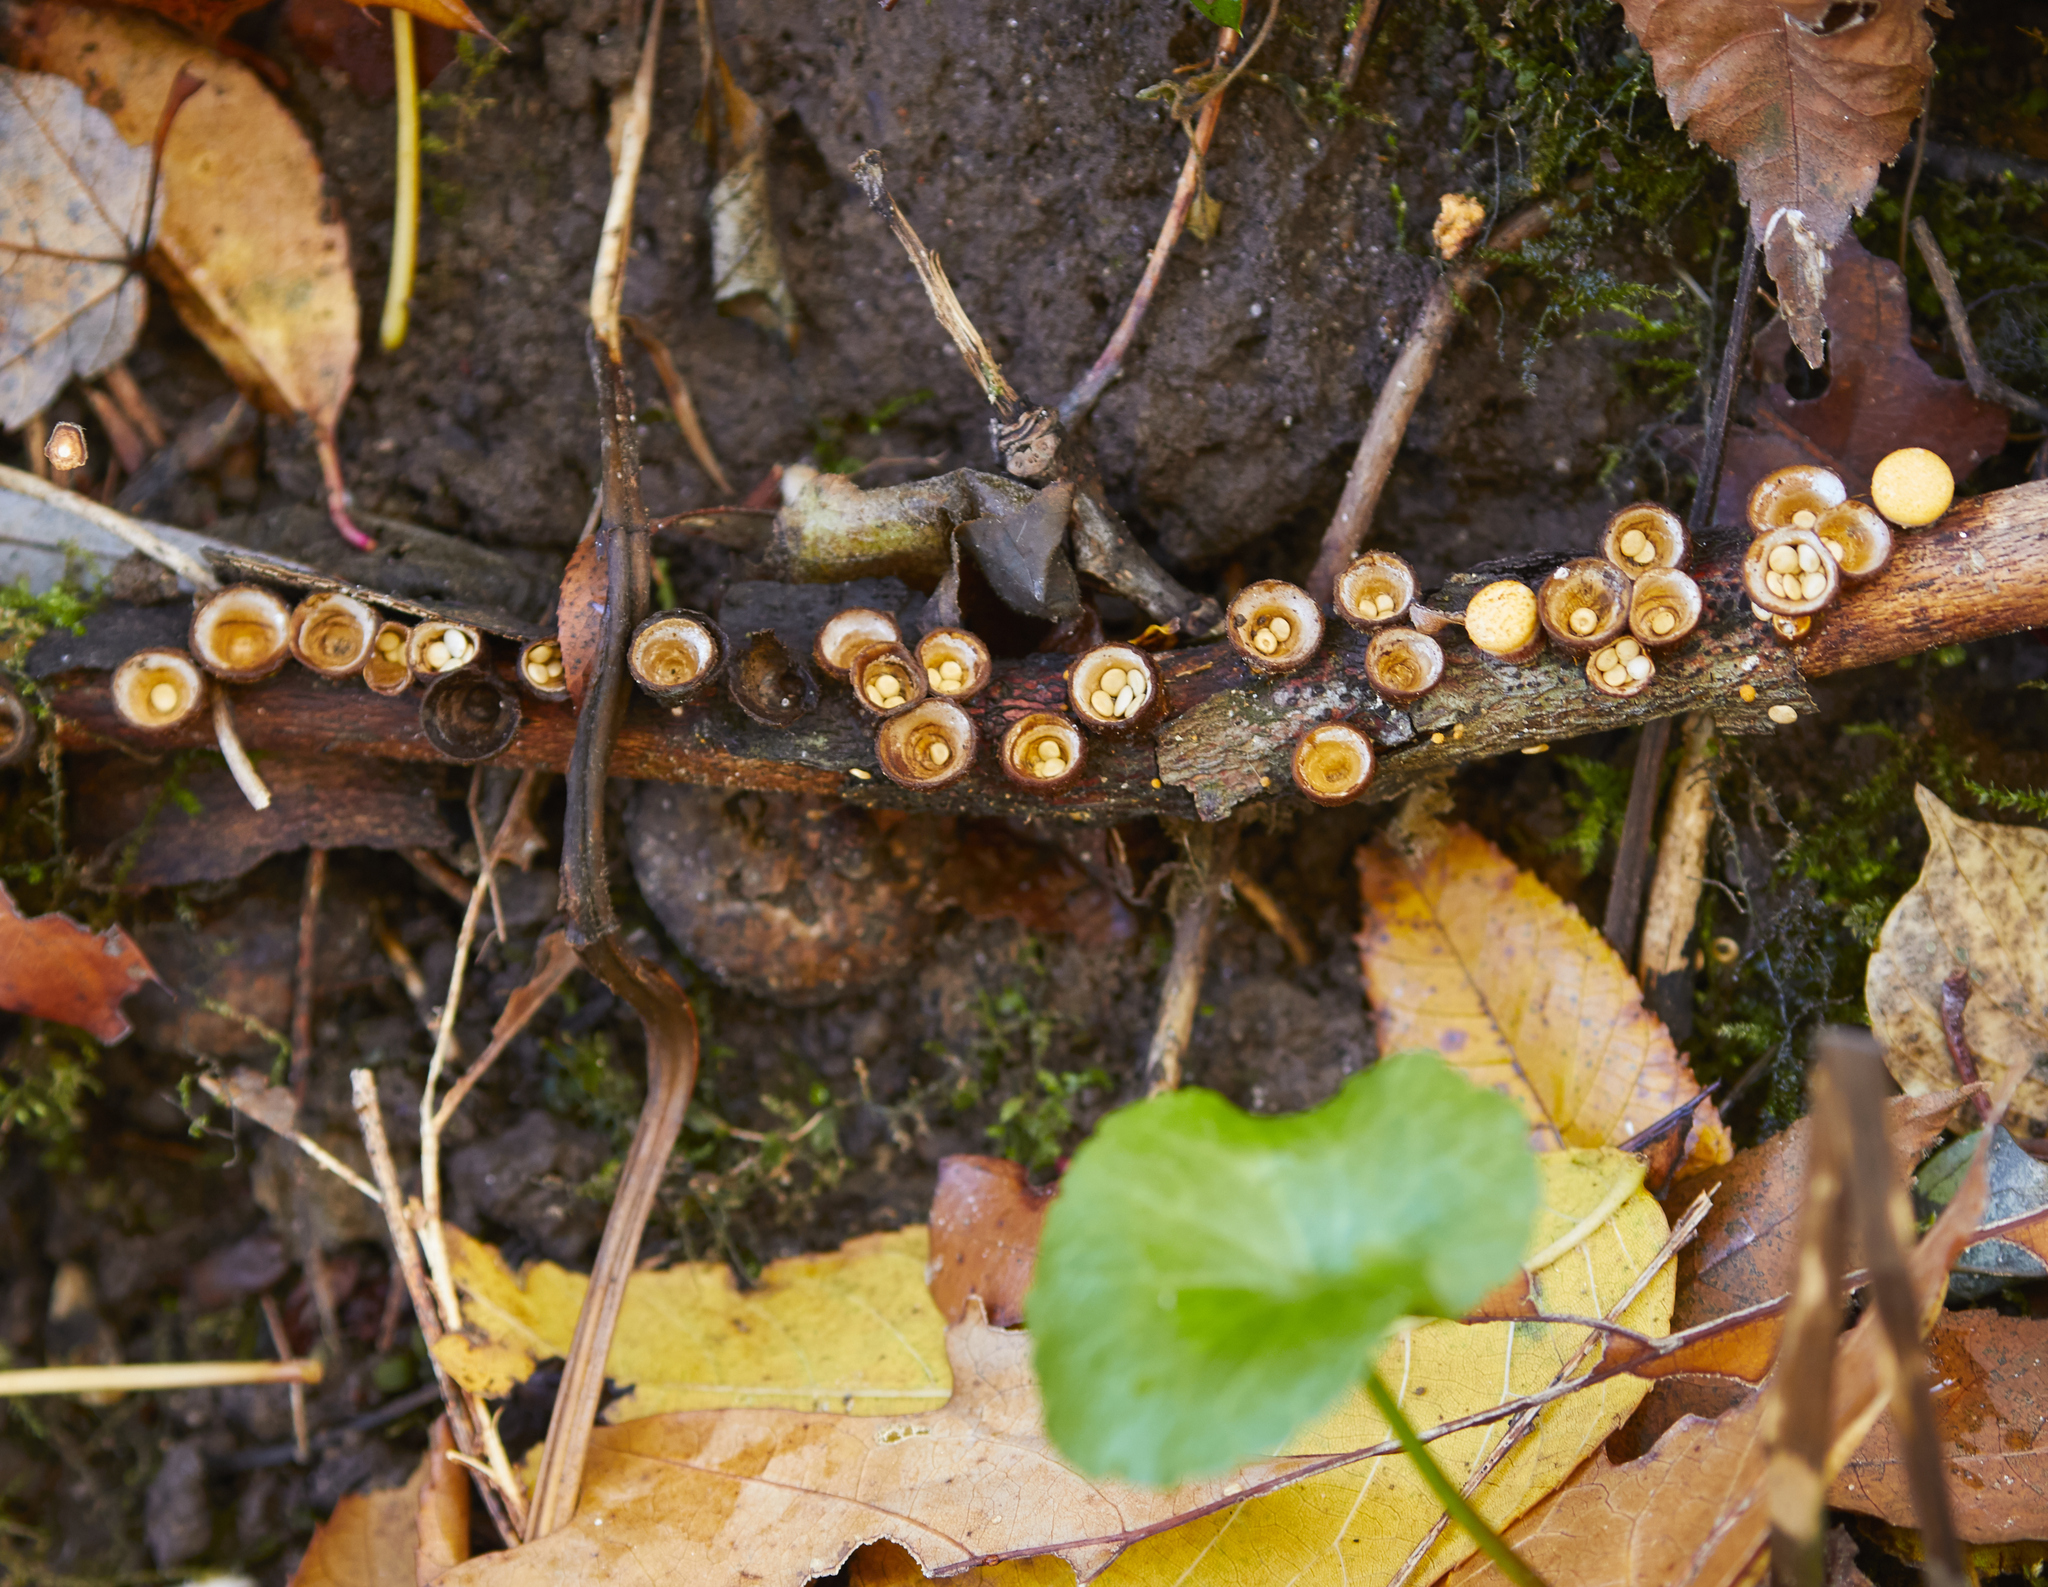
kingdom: Fungi
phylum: Basidiomycota
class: Agaricomycetes
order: Agaricales
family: Nidulariaceae
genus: Crucibulum
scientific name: Crucibulum laeve
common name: Common bird's nest
